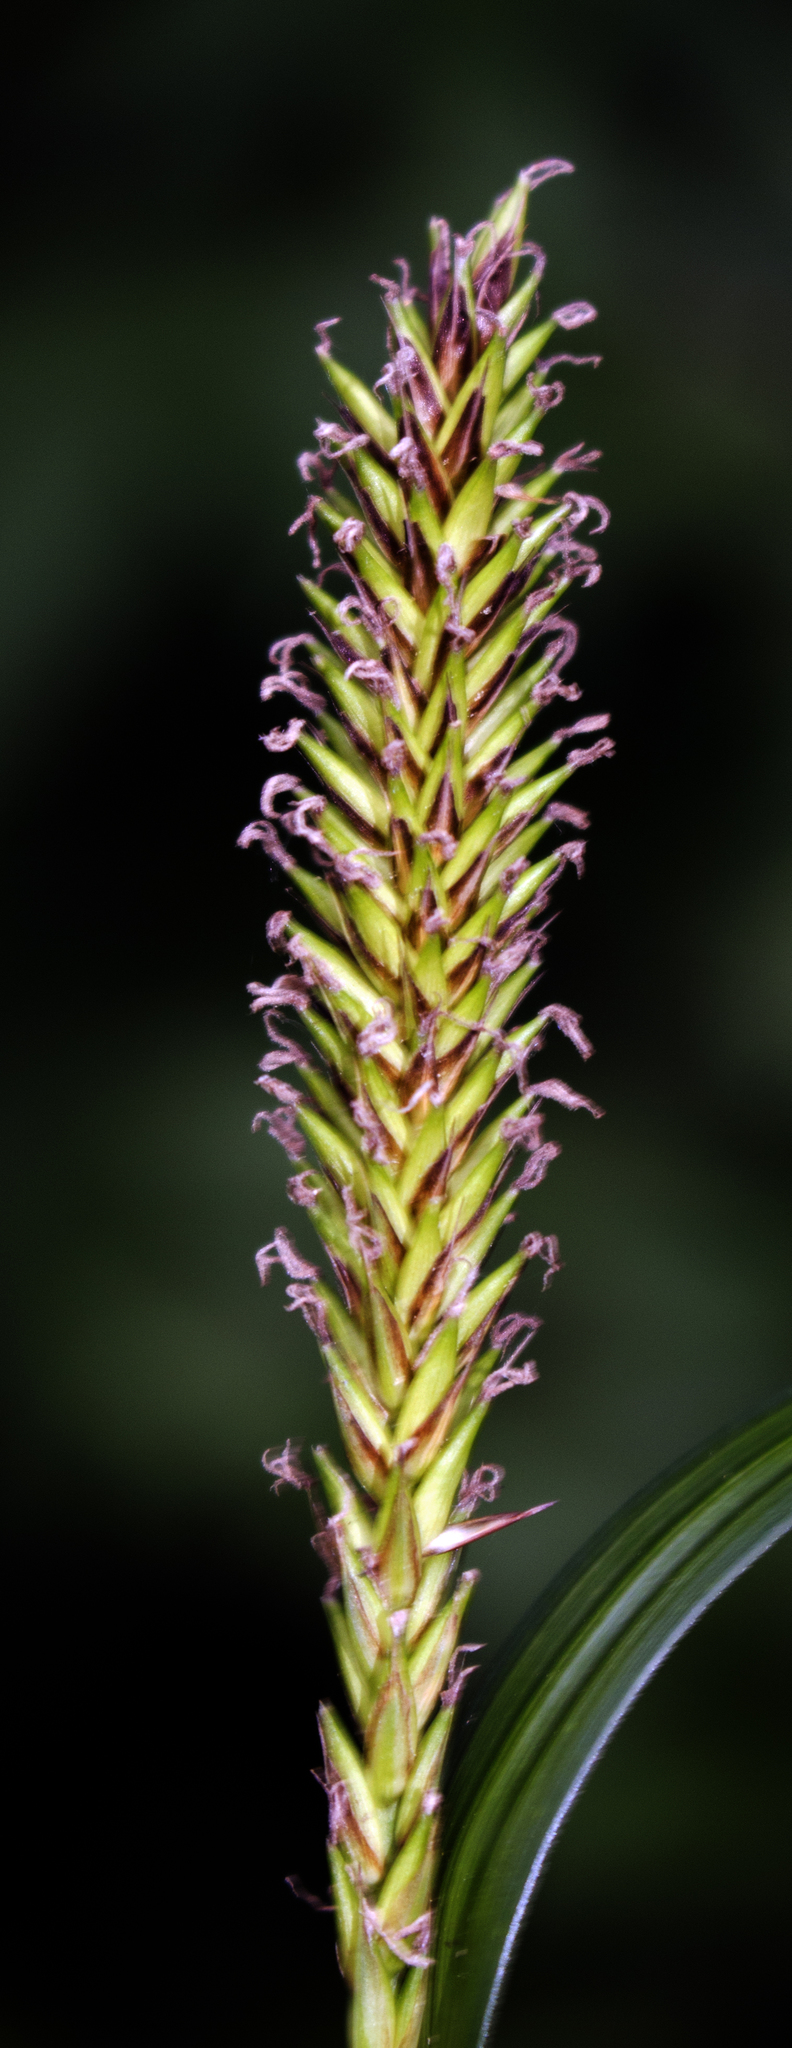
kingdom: Plantae
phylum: Tracheophyta
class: Liliopsida
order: Poales
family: Cyperaceae
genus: Carex
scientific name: Carex lacustris
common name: Common lake sedge
